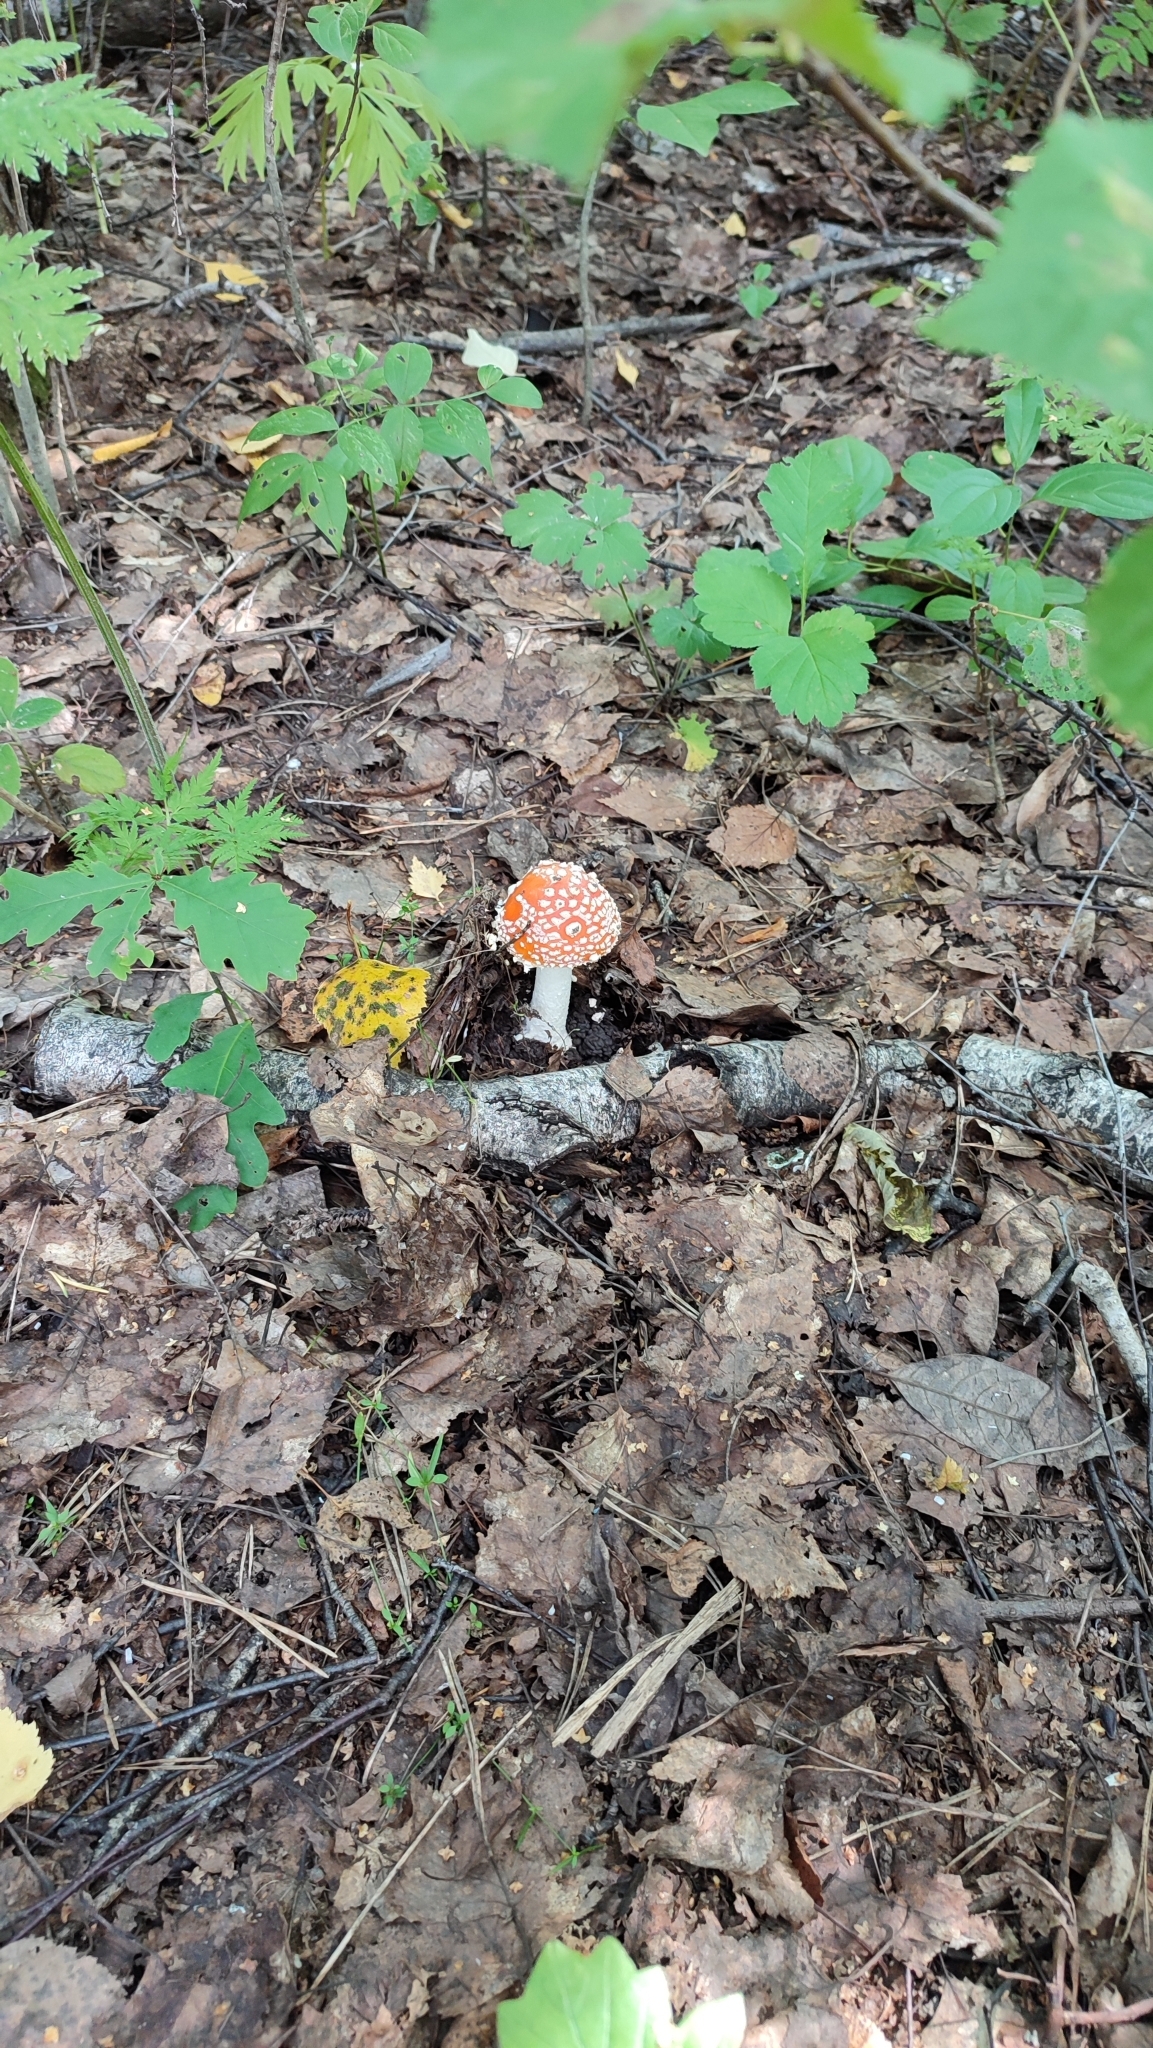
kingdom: Fungi
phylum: Basidiomycota
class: Agaricomycetes
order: Agaricales
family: Amanitaceae
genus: Amanita
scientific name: Amanita muscaria
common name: Fly agaric
